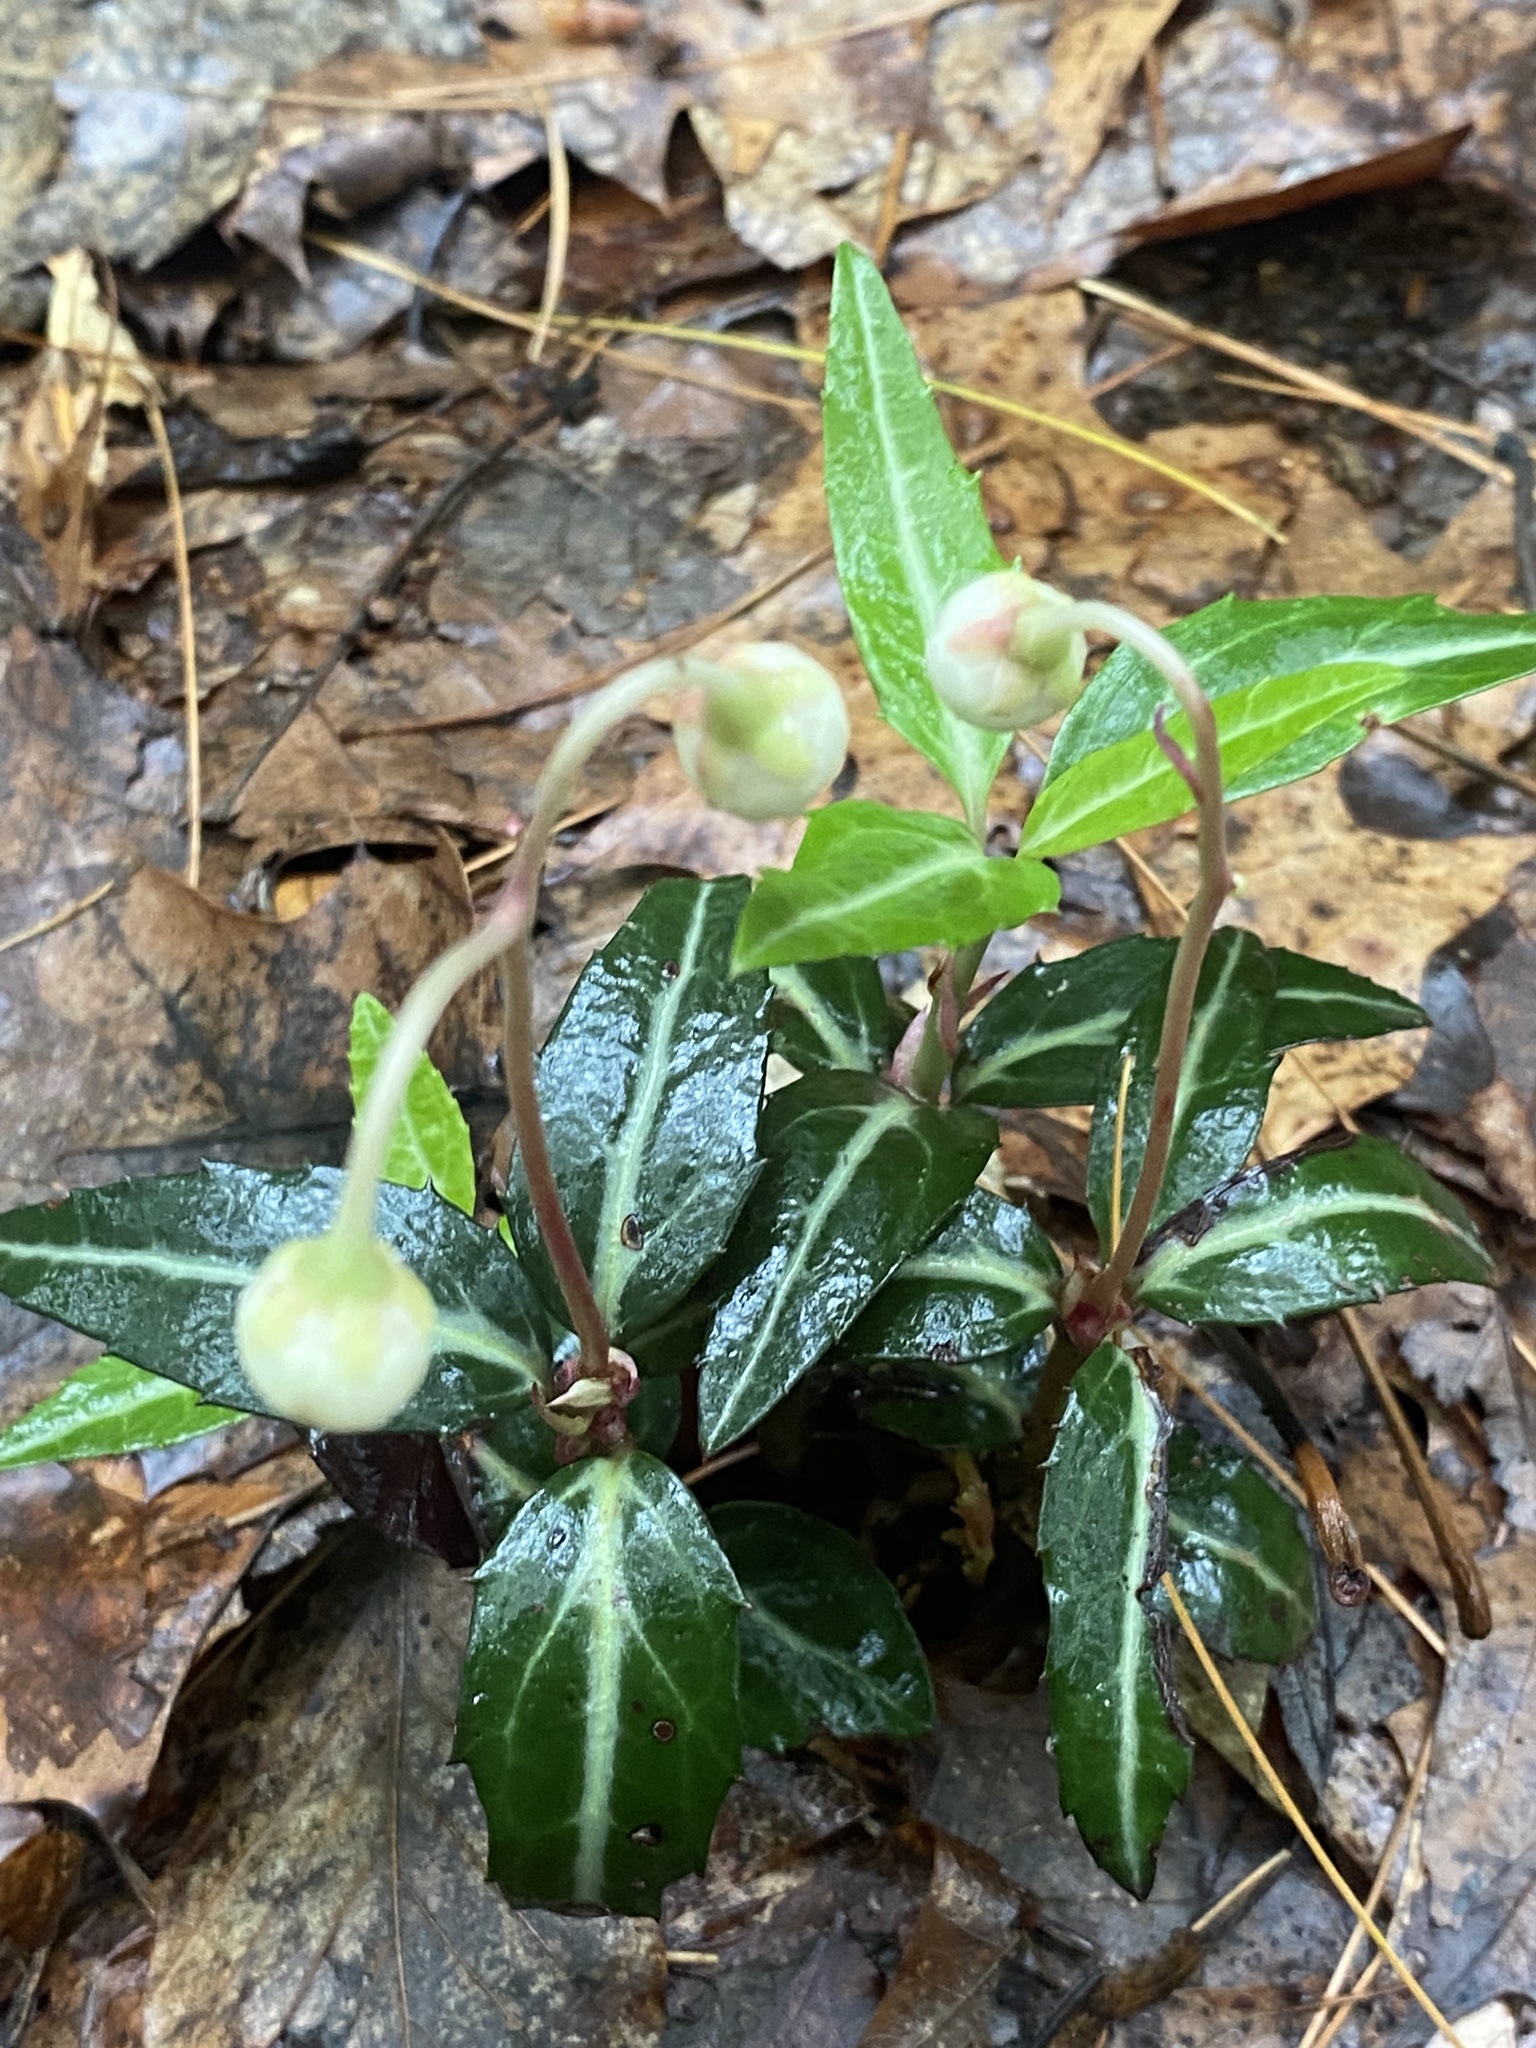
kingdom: Plantae
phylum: Tracheophyta
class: Magnoliopsida
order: Ericales
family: Ericaceae
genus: Chimaphila
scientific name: Chimaphila maculata
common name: Spotted pipsissewa
